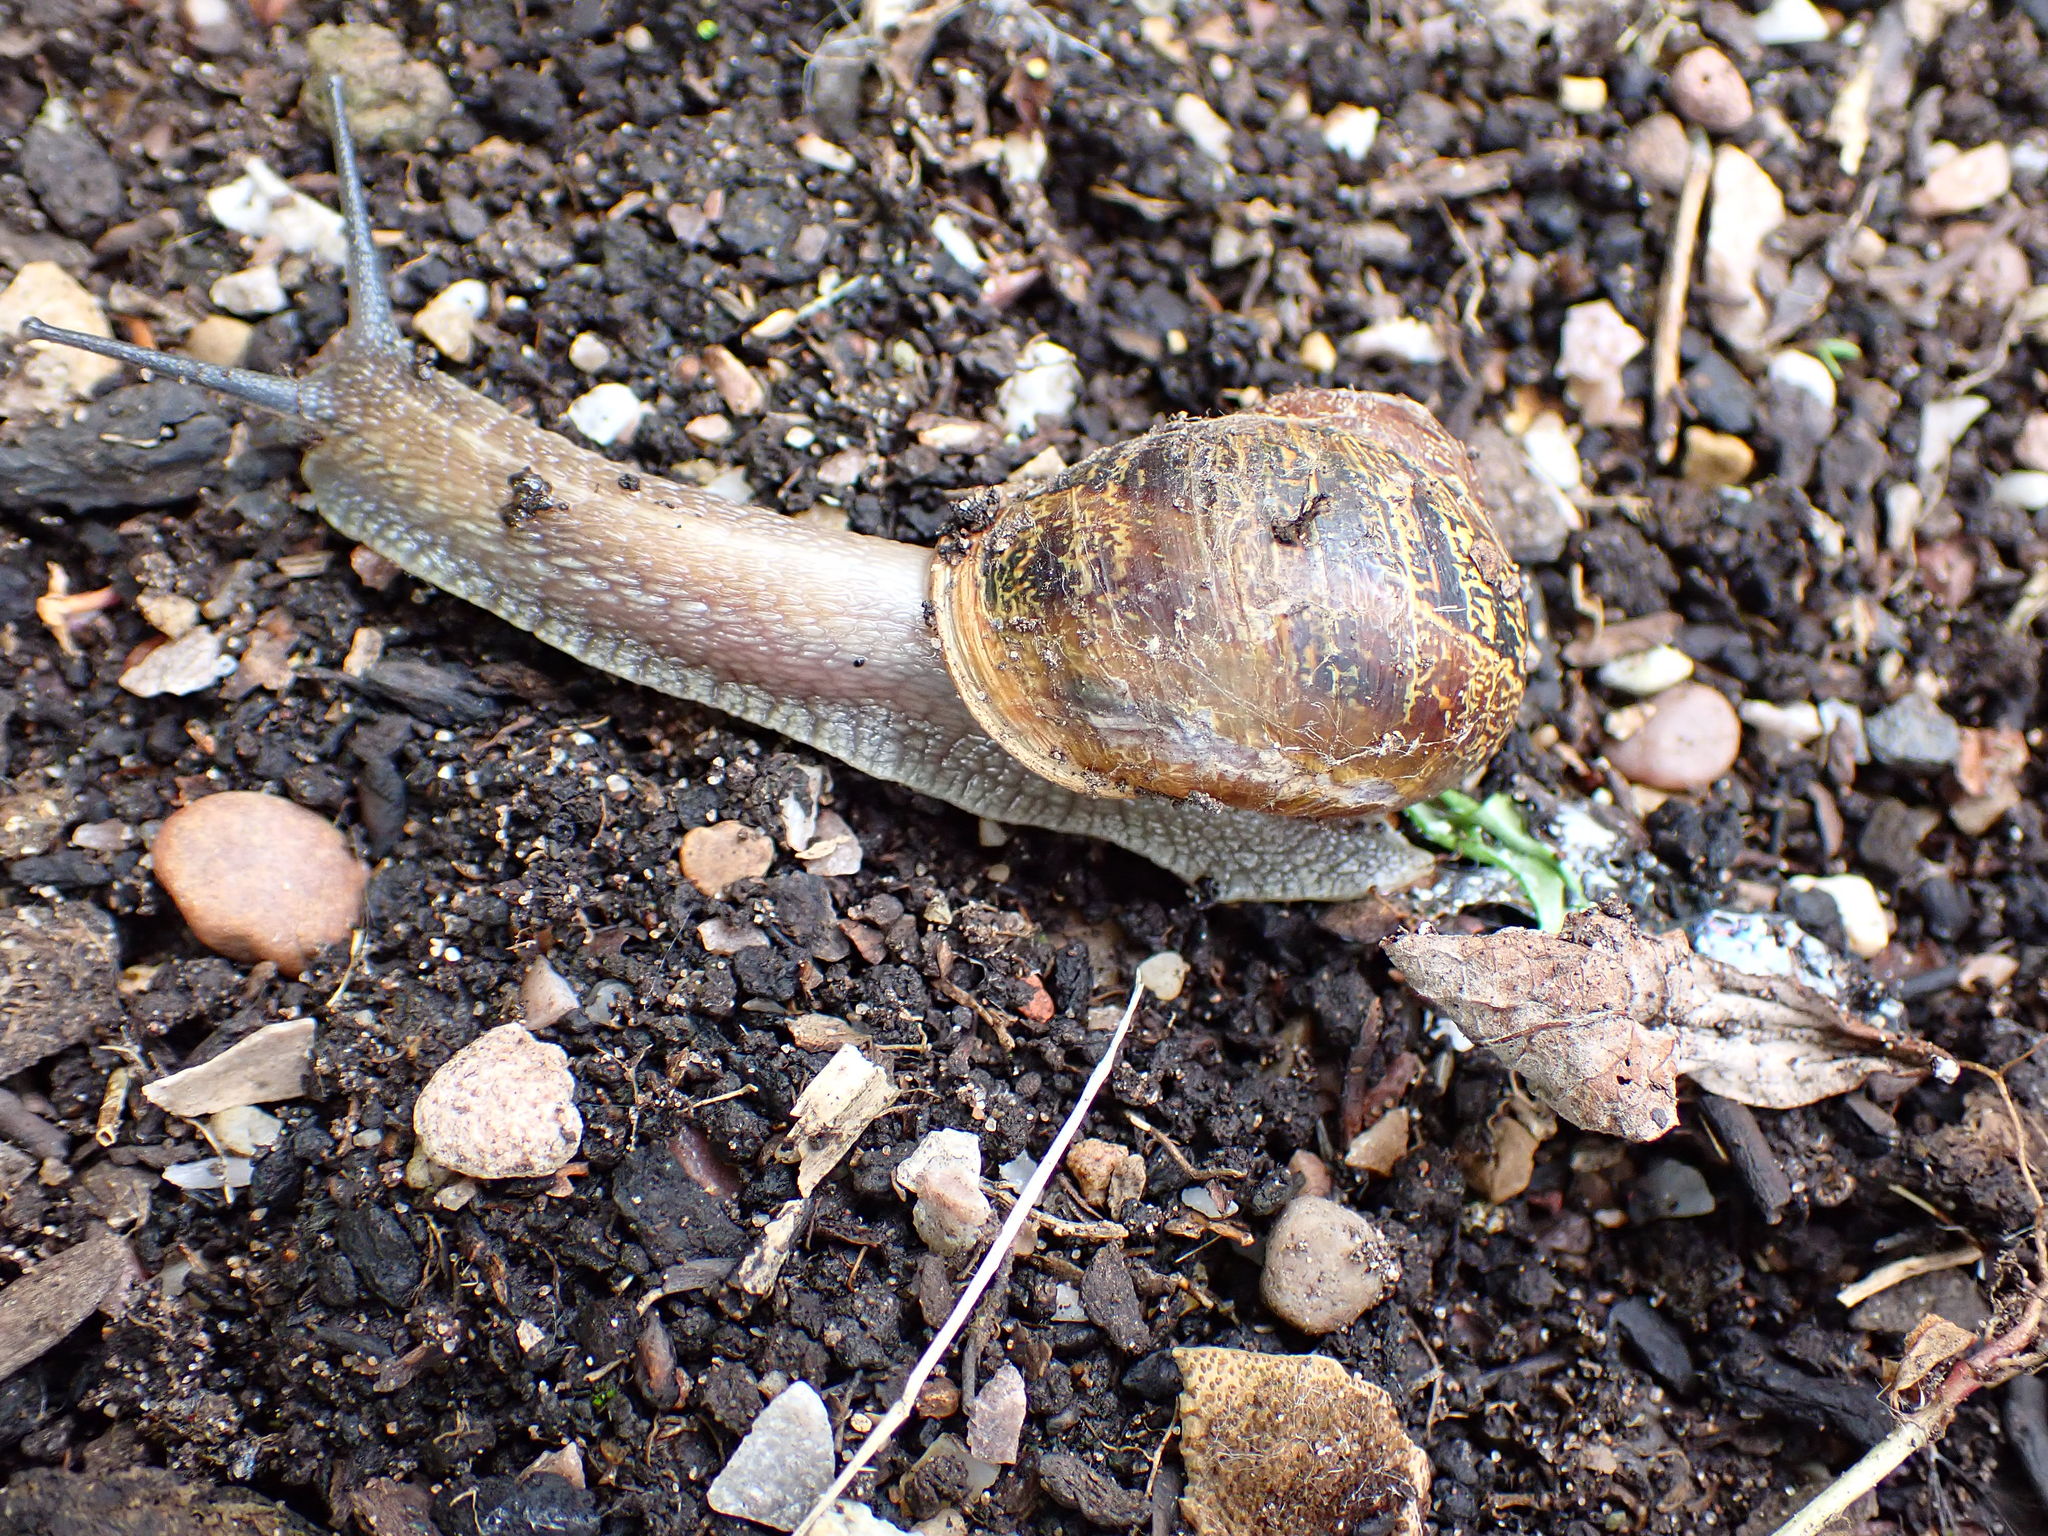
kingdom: Animalia
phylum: Mollusca
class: Gastropoda
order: Stylommatophora
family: Helicidae
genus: Cornu
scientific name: Cornu aspersum
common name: Brown garden snail
